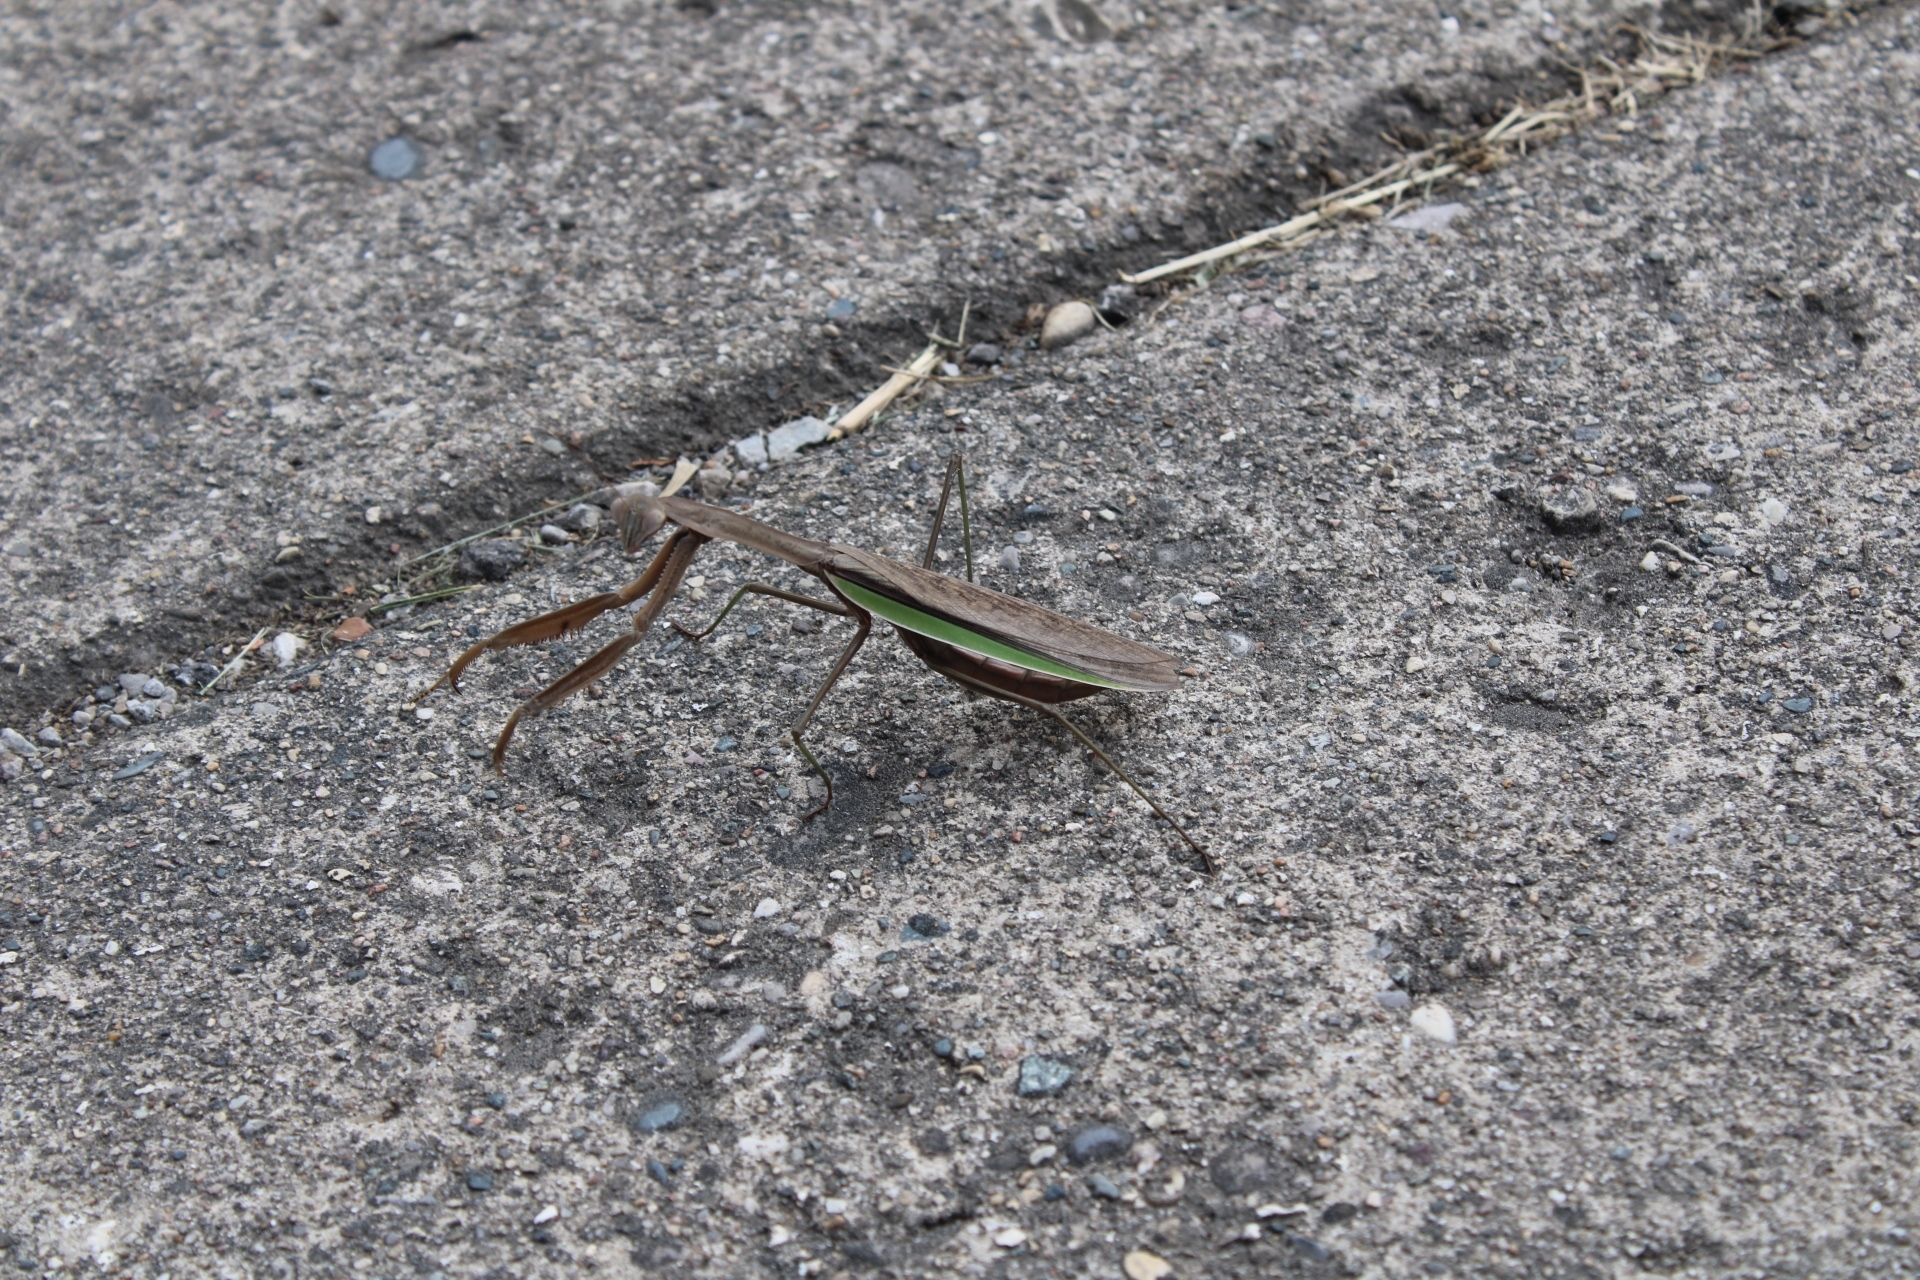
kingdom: Animalia
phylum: Arthropoda
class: Insecta
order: Mantodea
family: Mantidae
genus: Tenodera
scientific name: Tenodera sinensis
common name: Chinese mantis
